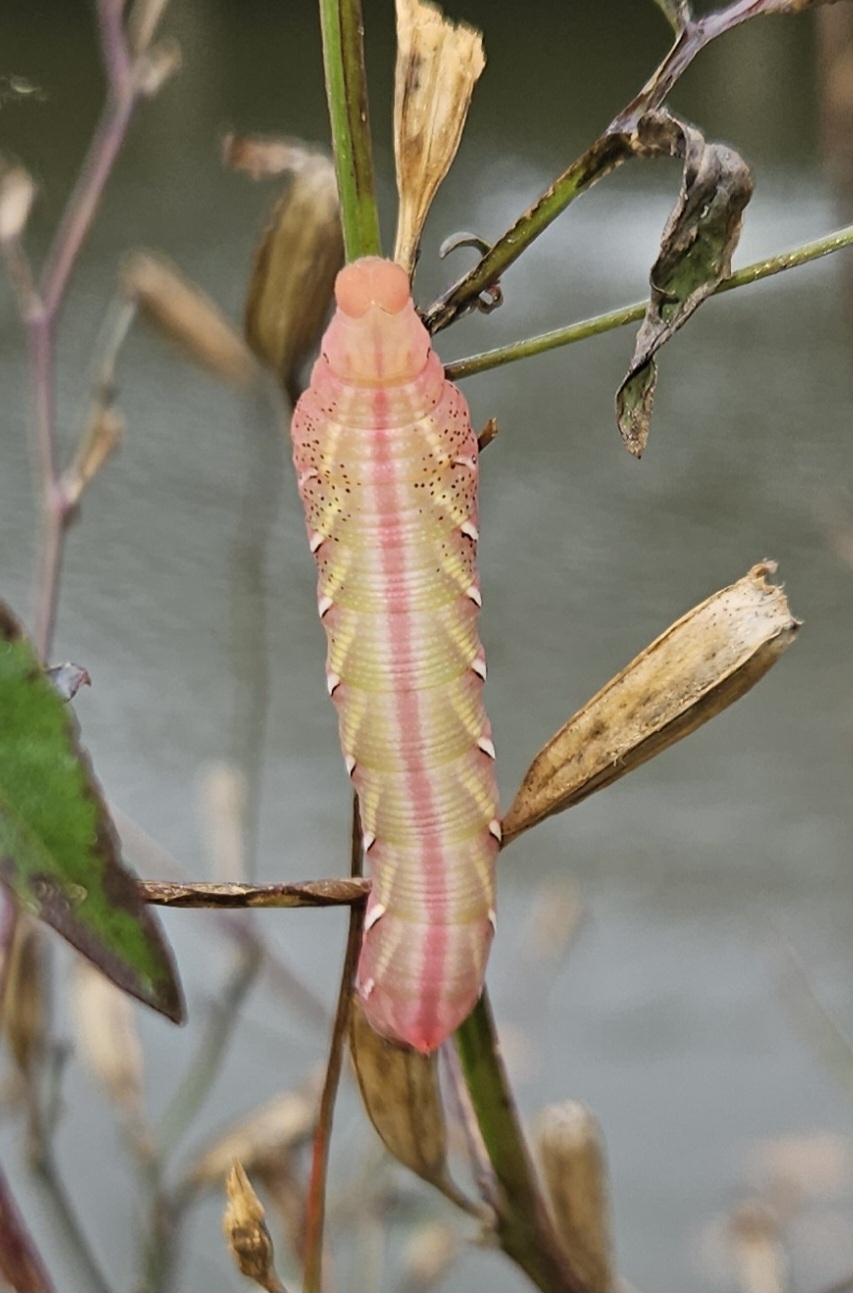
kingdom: Animalia
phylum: Arthropoda
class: Insecta
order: Lepidoptera
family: Sphingidae
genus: Eumorpha
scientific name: Eumorpha fasciatus
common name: Banded sphinx
